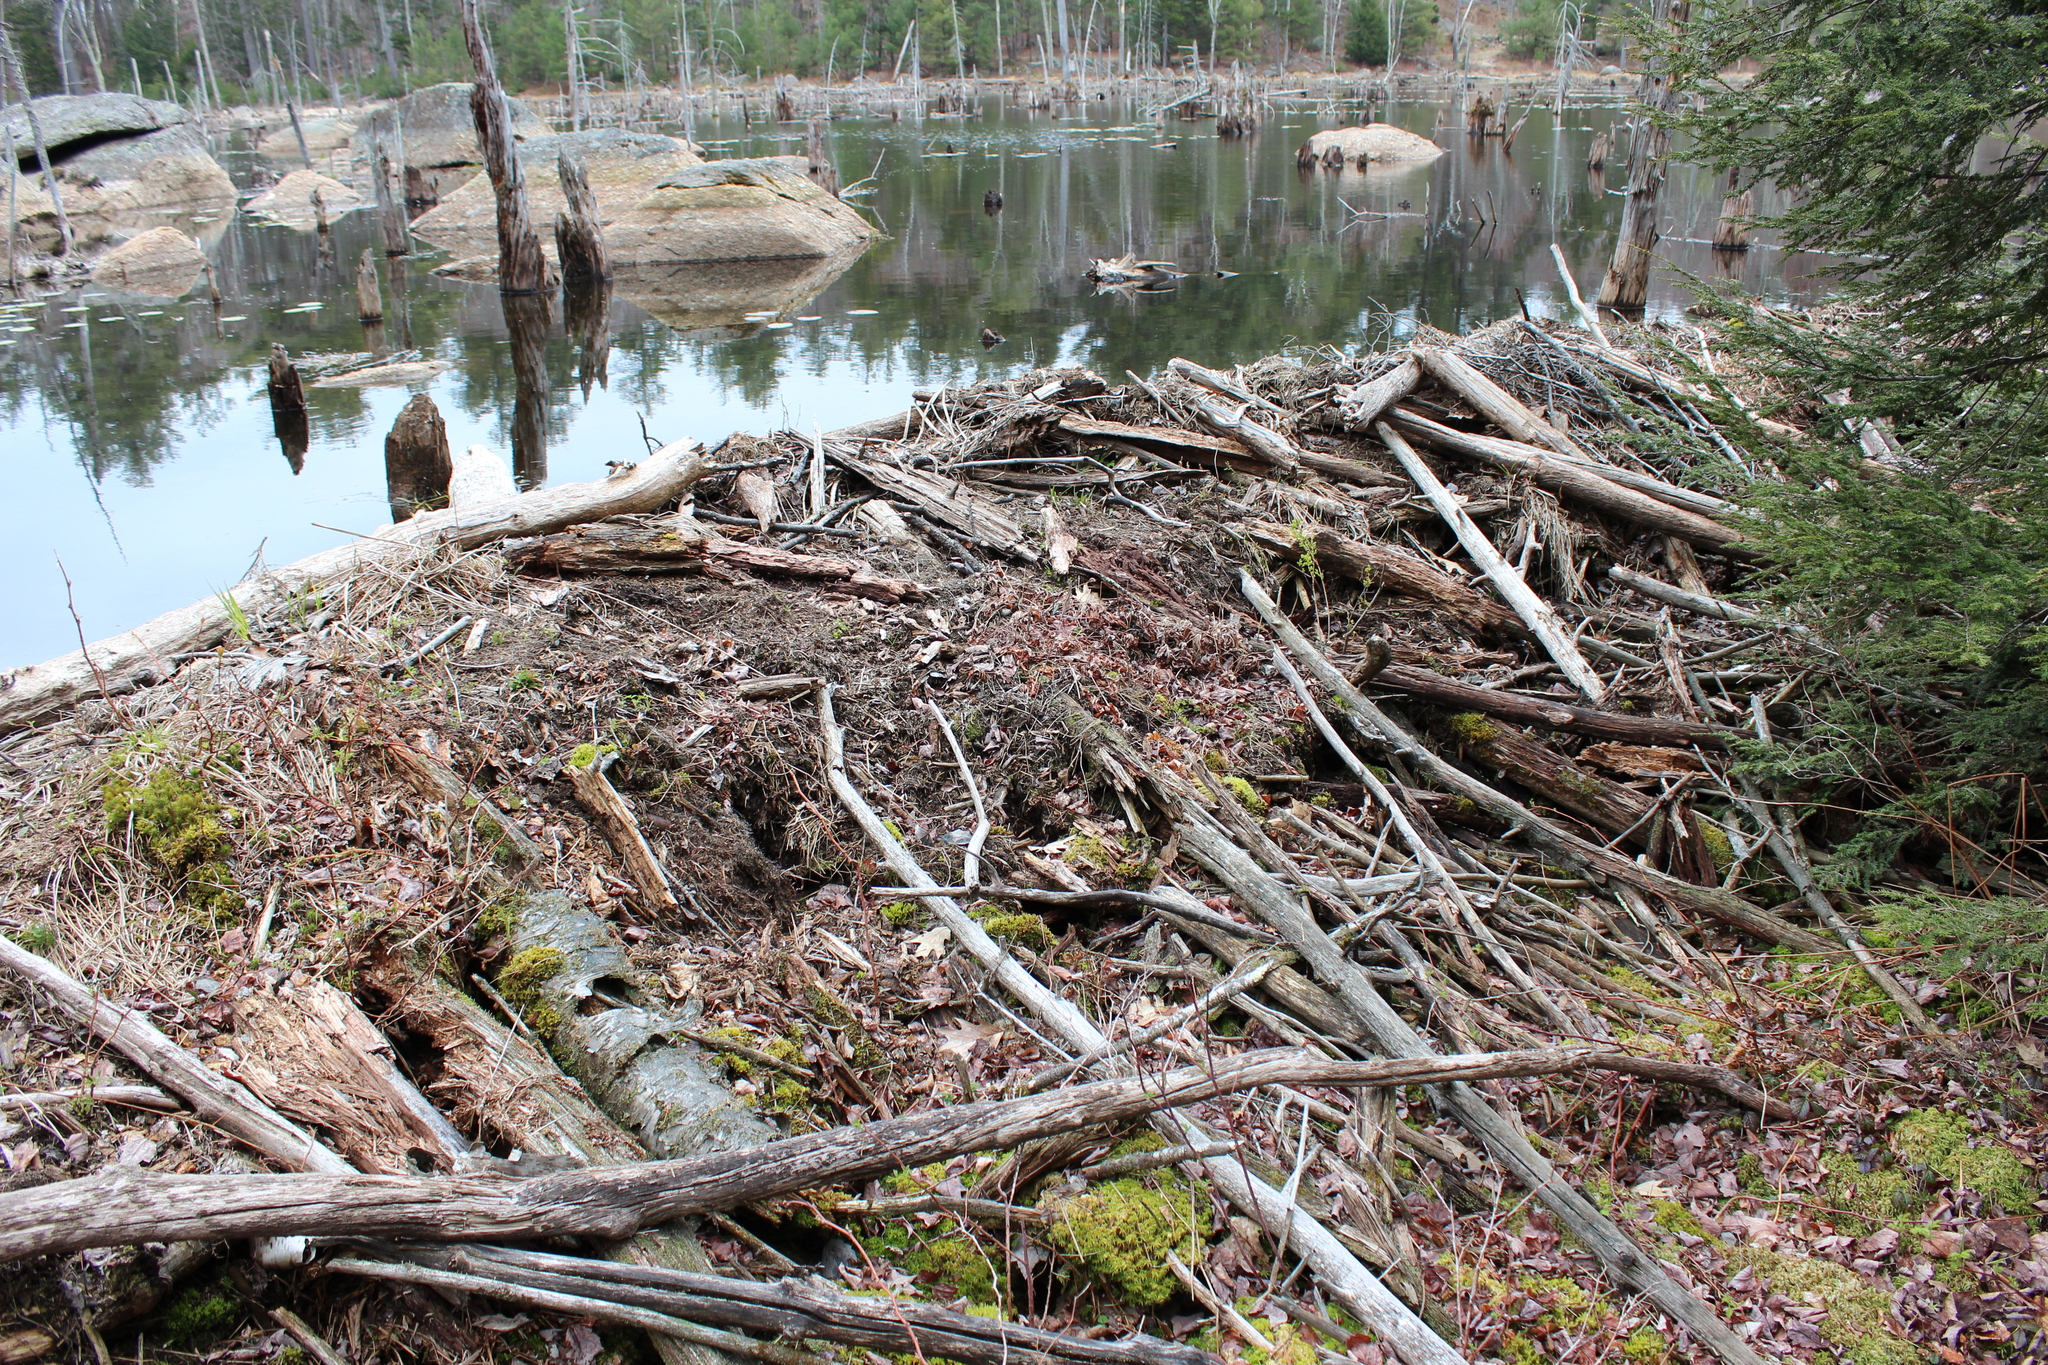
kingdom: Animalia
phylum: Chordata
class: Mammalia
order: Rodentia
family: Castoridae
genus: Castor
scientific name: Castor canadensis
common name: American beaver
